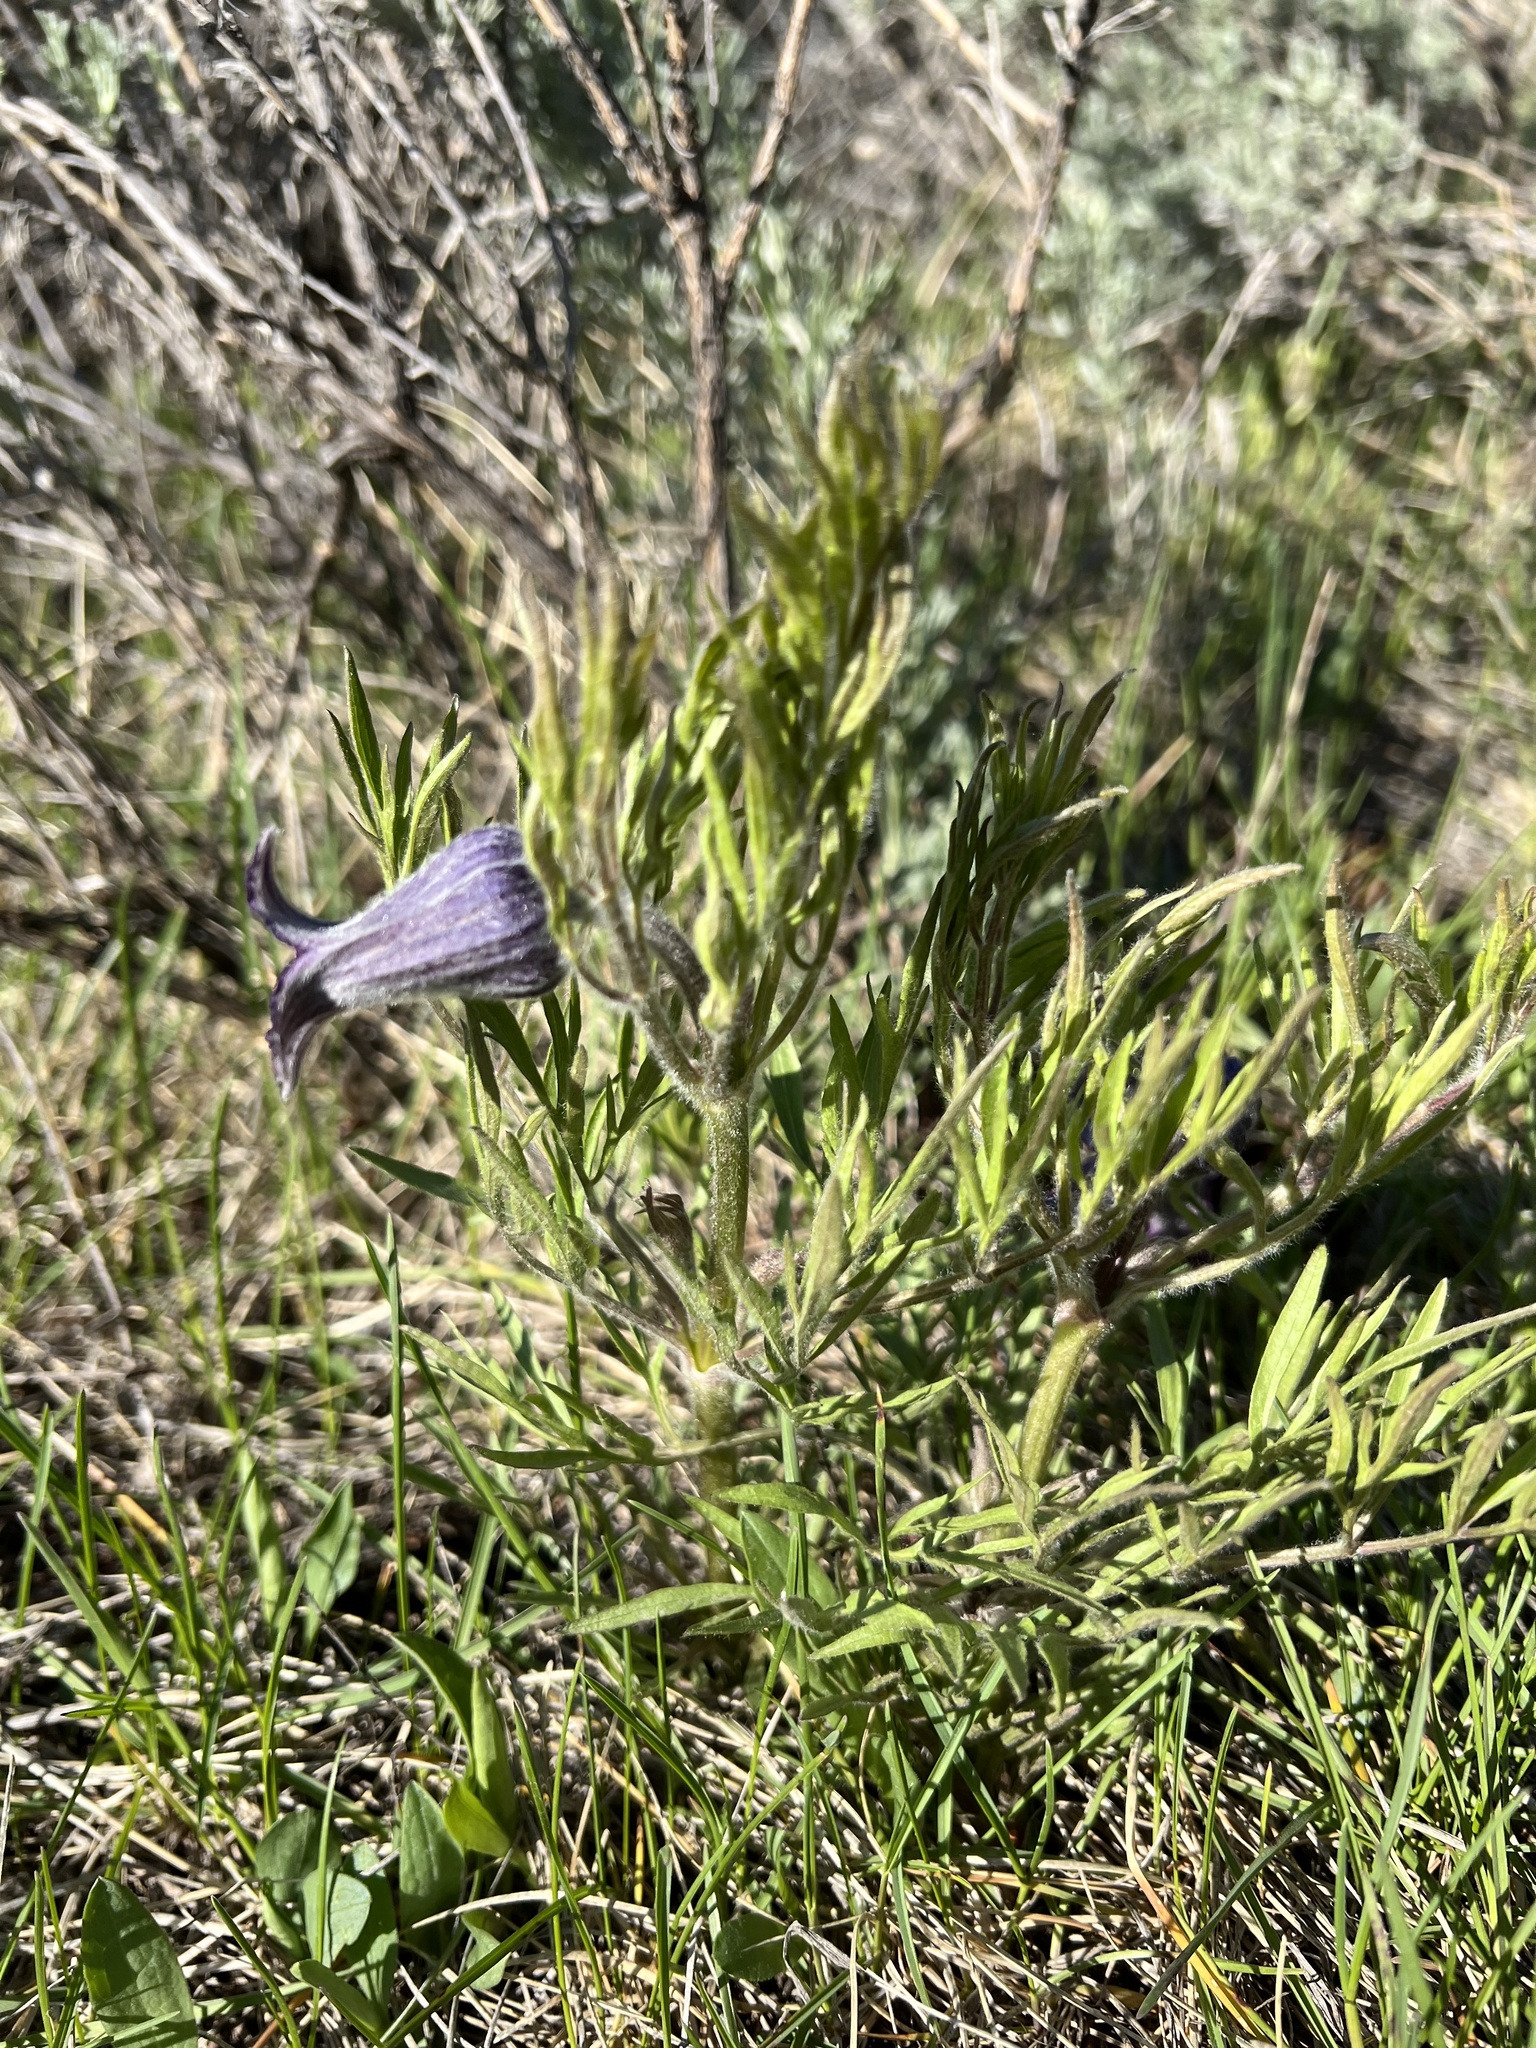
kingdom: Plantae
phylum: Tracheophyta
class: Magnoliopsida
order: Ranunculales
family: Ranunculaceae
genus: Clematis
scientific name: Clematis hirsutissima
